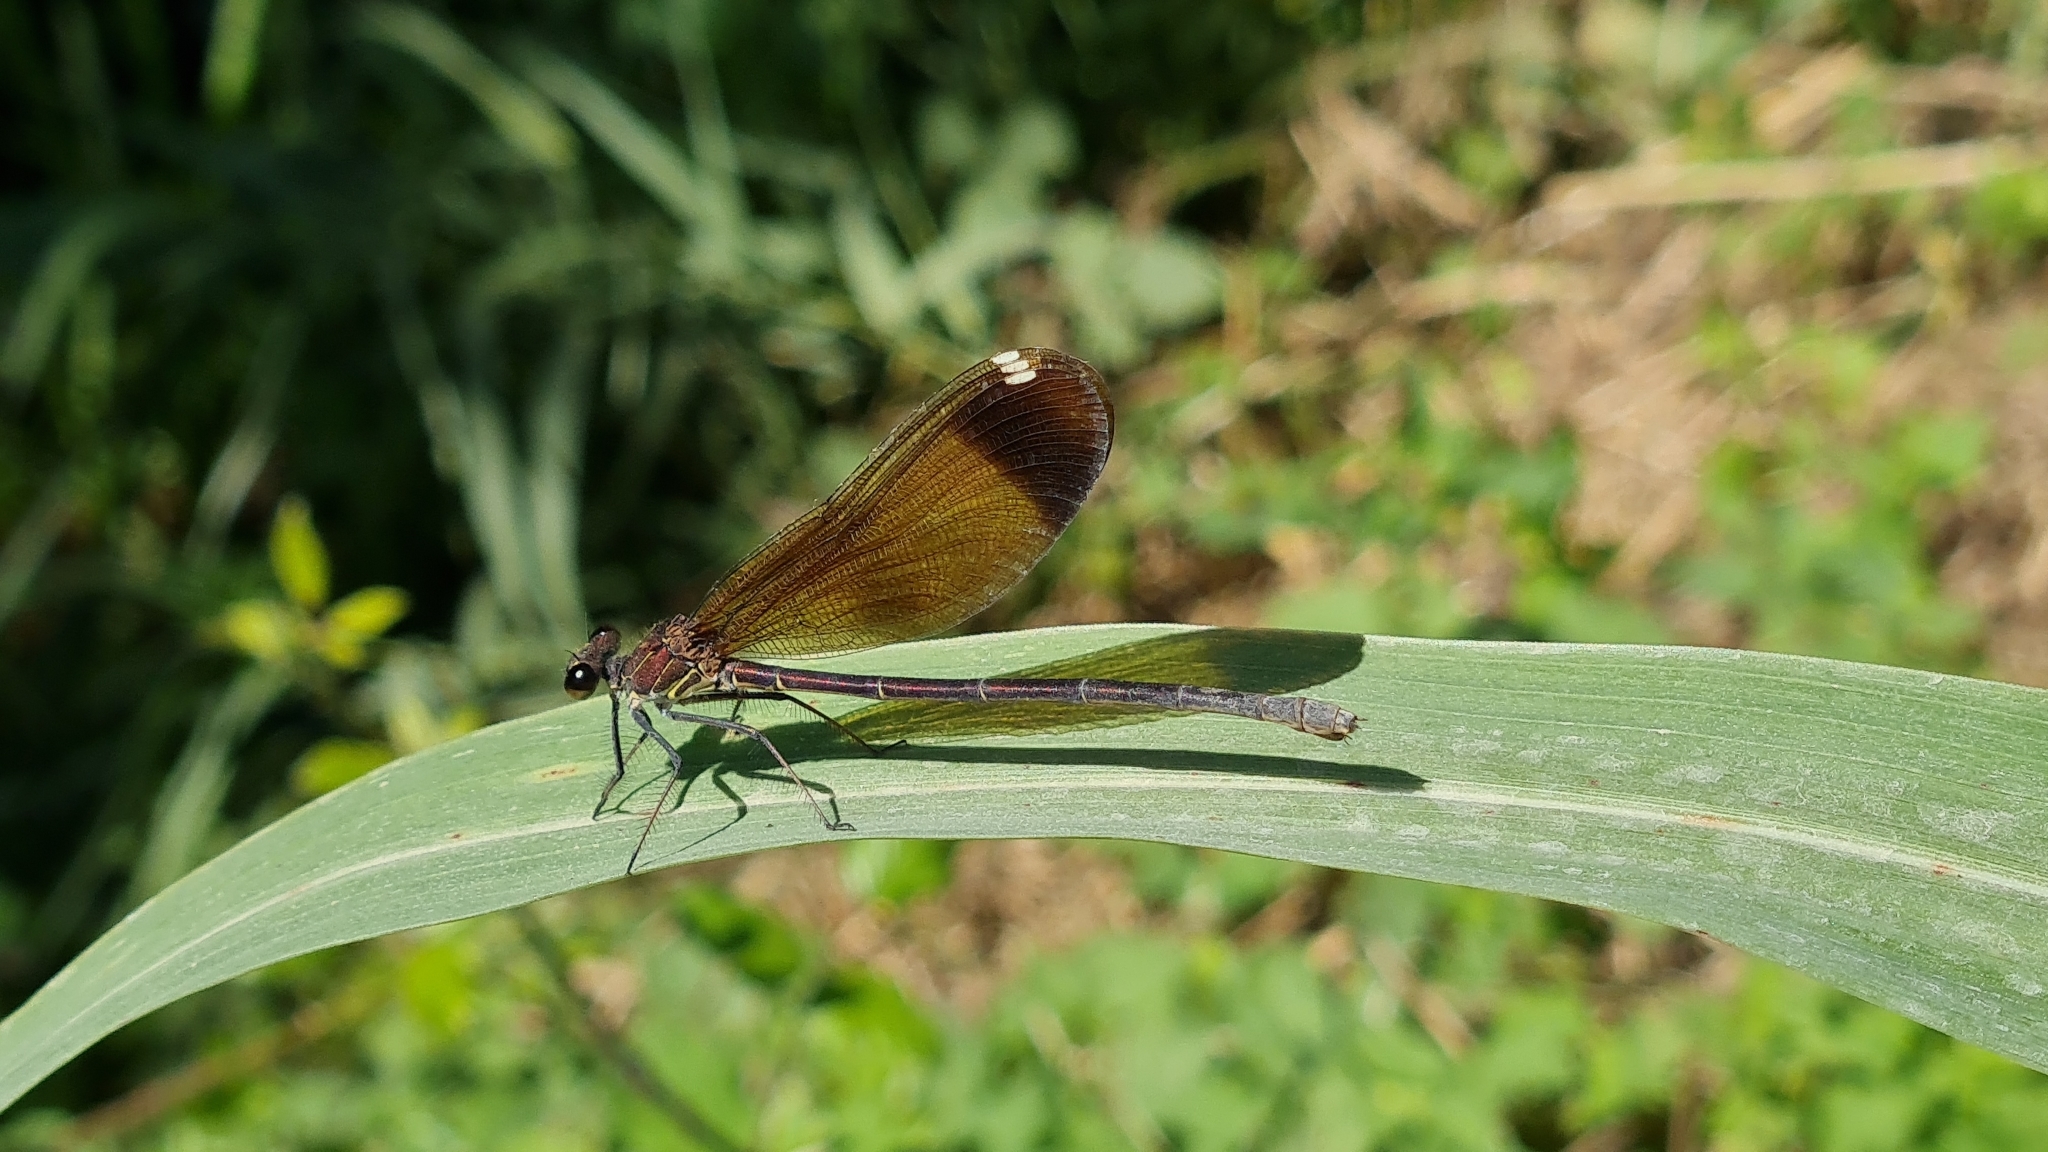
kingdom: Animalia
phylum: Arthropoda
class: Insecta
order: Odonata
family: Calopterygidae
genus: Calopteryx
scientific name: Calopteryx haemorrhoidalis
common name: Copper demoiselle
